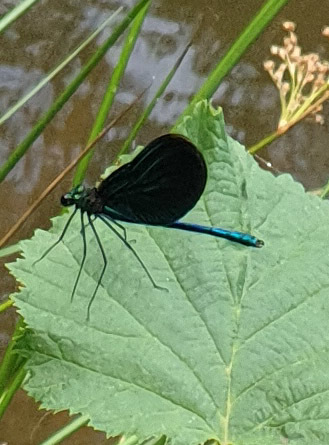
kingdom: Animalia
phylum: Arthropoda
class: Insecta
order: Odonata
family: Calopterygidae
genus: Calopteryx
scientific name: Calopteryx virgo
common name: Beautiful demoiselle
